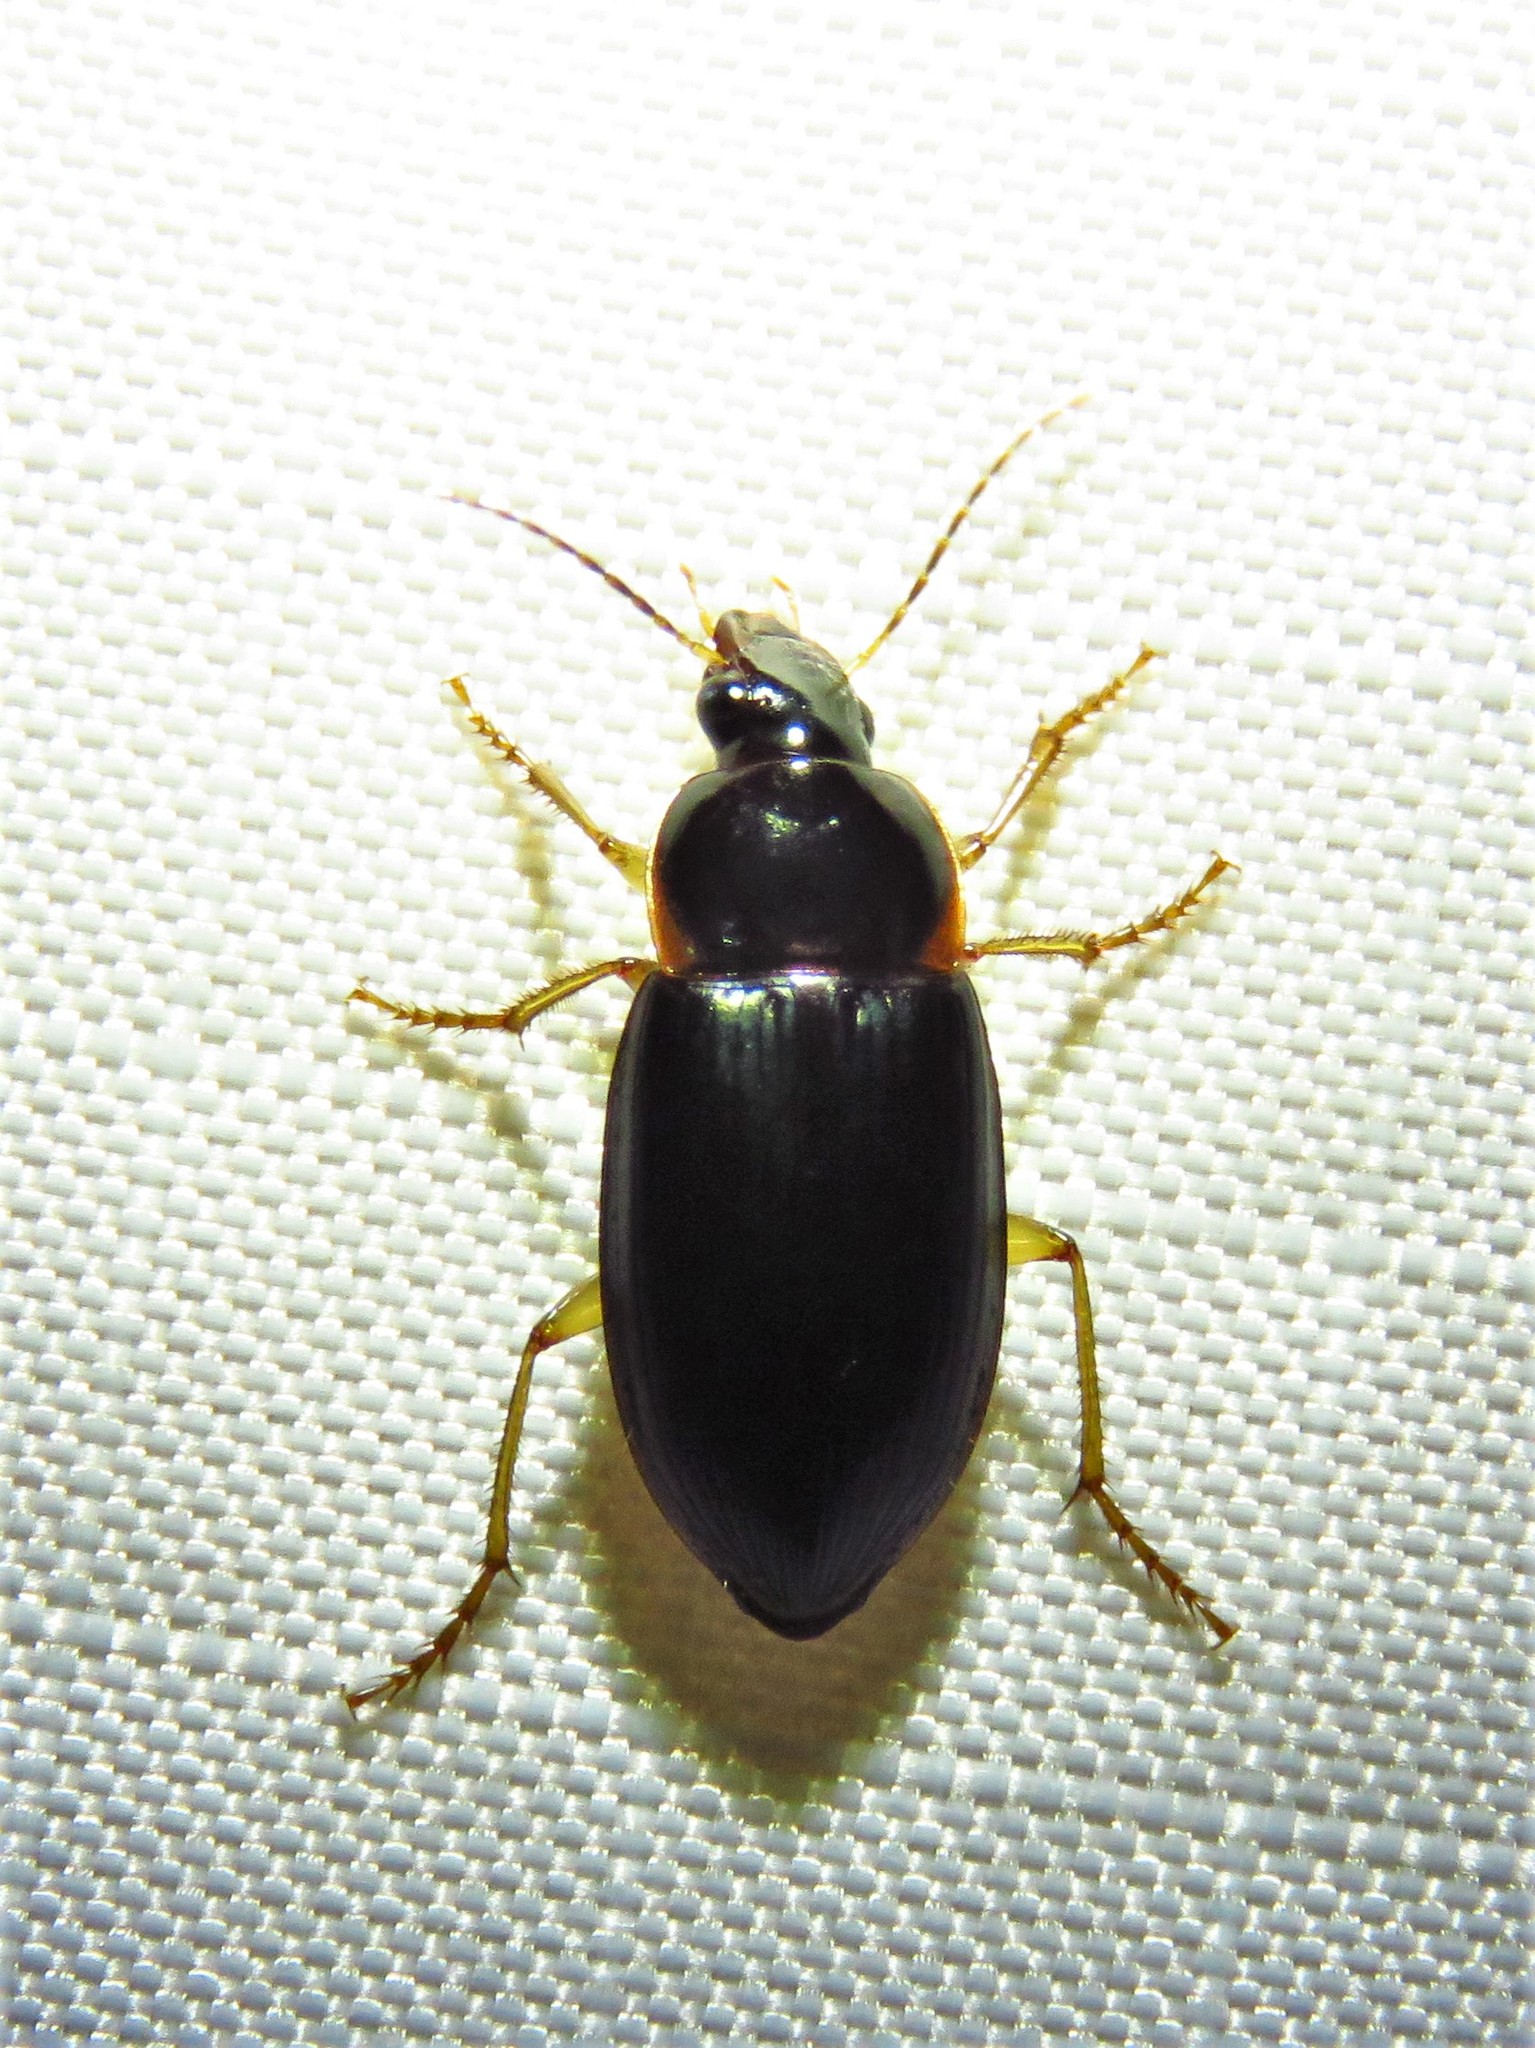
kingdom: Animalia
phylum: Arthropoda
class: Insecta
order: Coleoptera
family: Carabidae
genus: Notiobia
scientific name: Notiobia terminata
